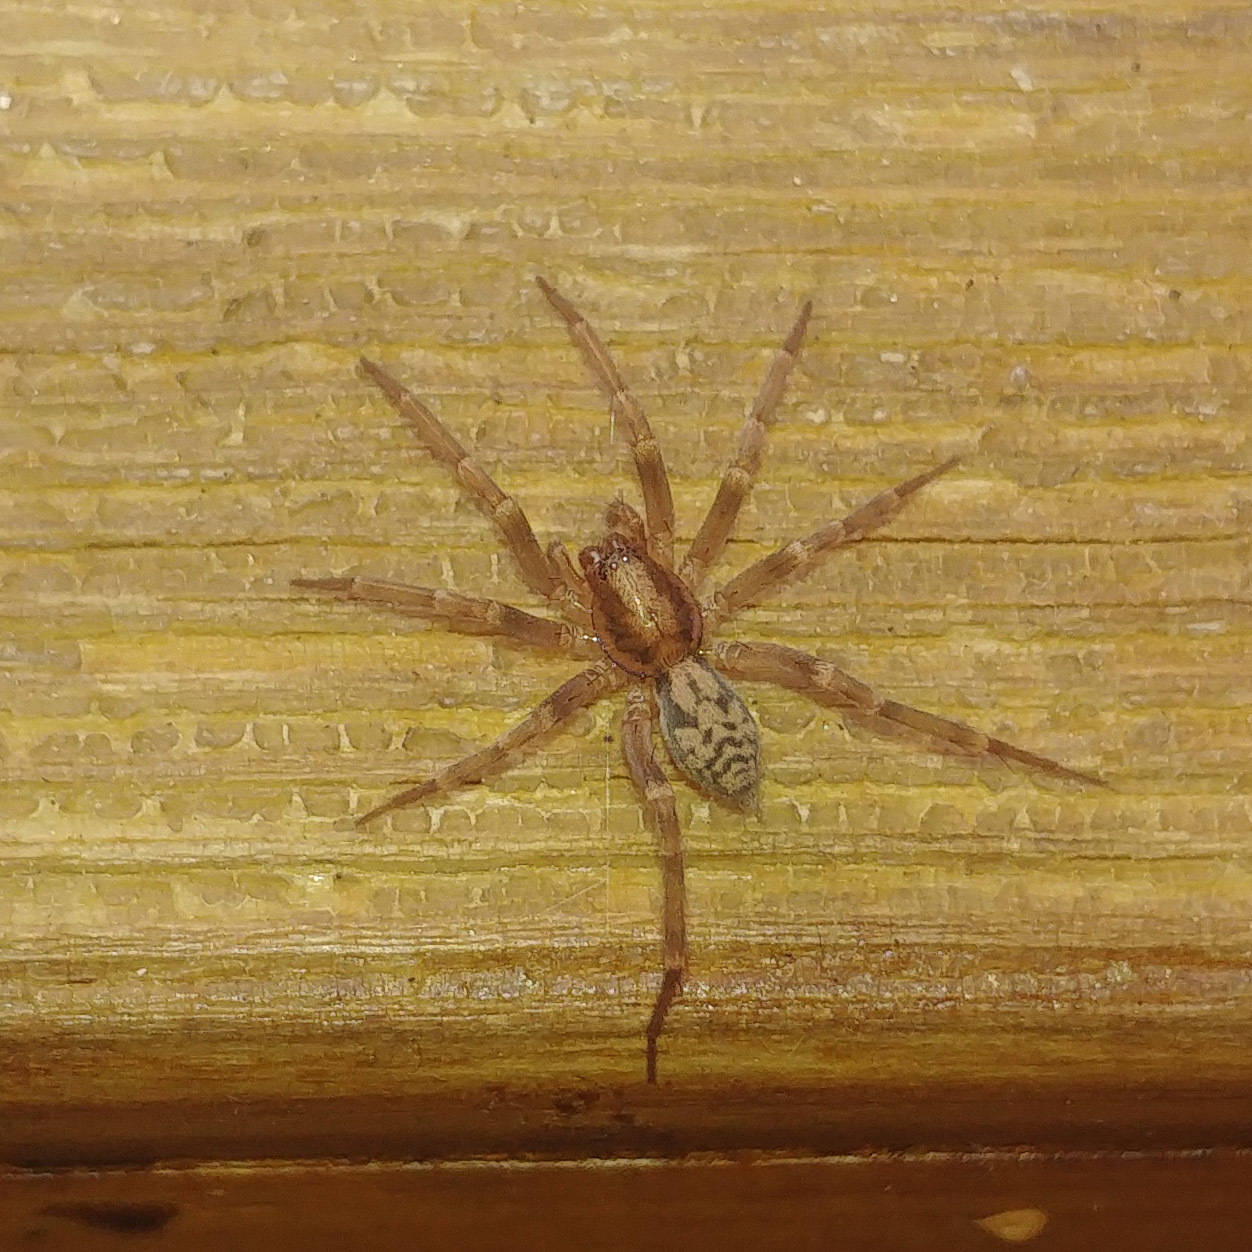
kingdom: Animalia
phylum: Arthropoda
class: Arachnida
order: Araneae
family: Liocranidae
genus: Liocranum
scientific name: Liocranum rupicola
